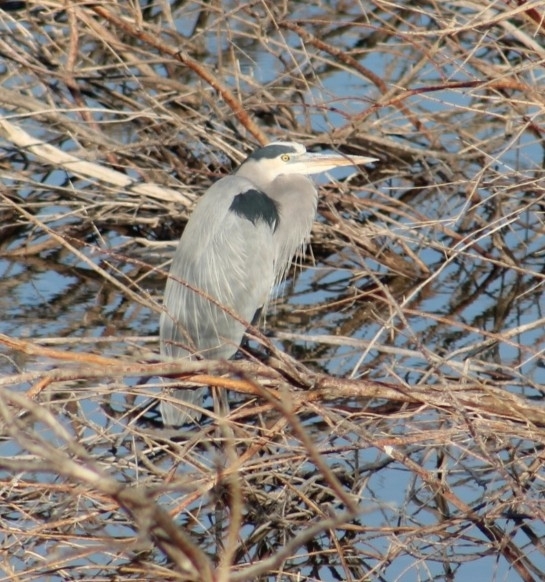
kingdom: Animalia
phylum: Chordata
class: Aves
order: Pelecaniformes
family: Ardeidae
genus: Ardea
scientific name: Ardea herodias
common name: Great blue heron
